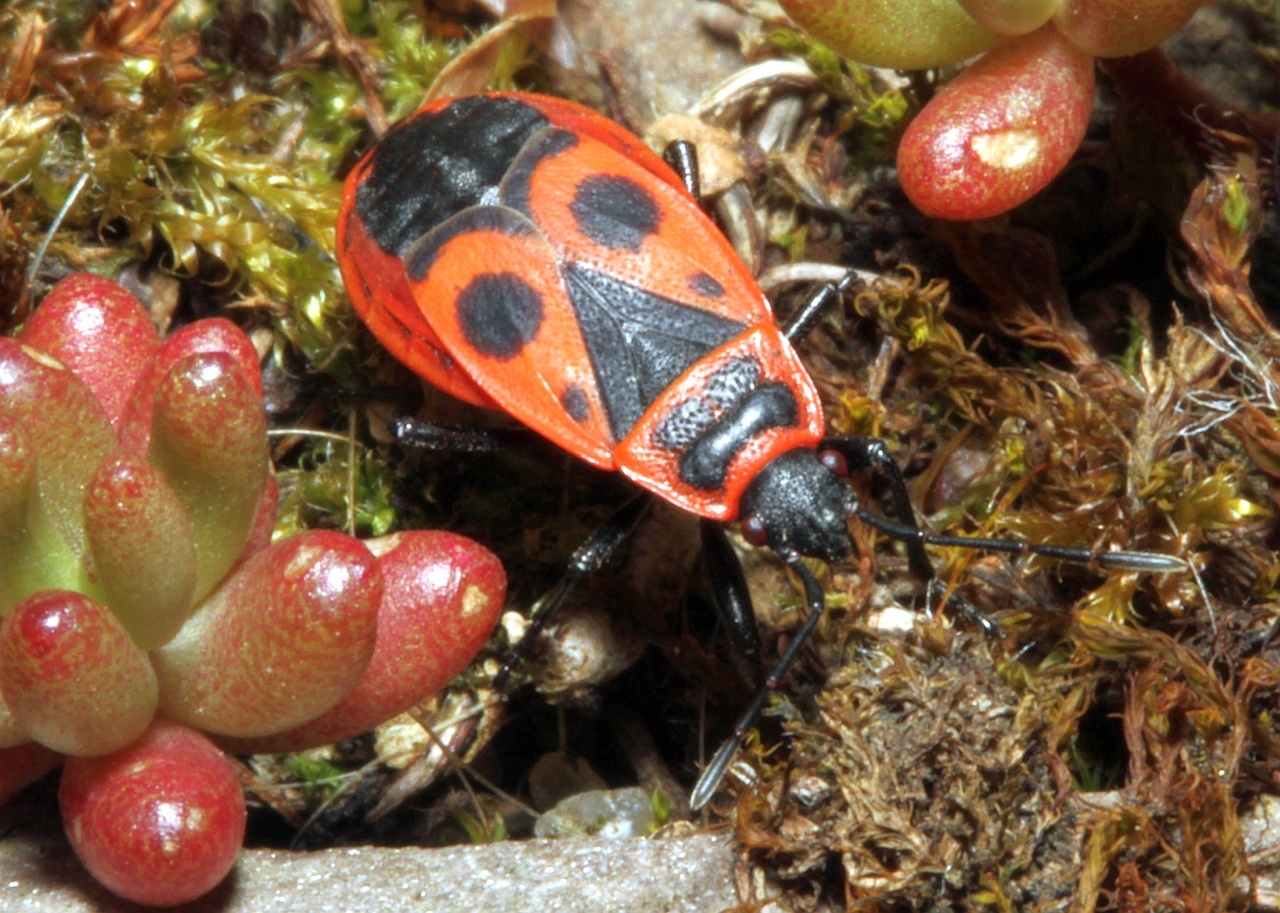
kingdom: Animalia
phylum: Arthropoda
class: Insecta
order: Hemiptera
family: Pyrrhocoridae
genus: Pyrrhocoris
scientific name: Pyrrhocoris apterus
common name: Firebug
